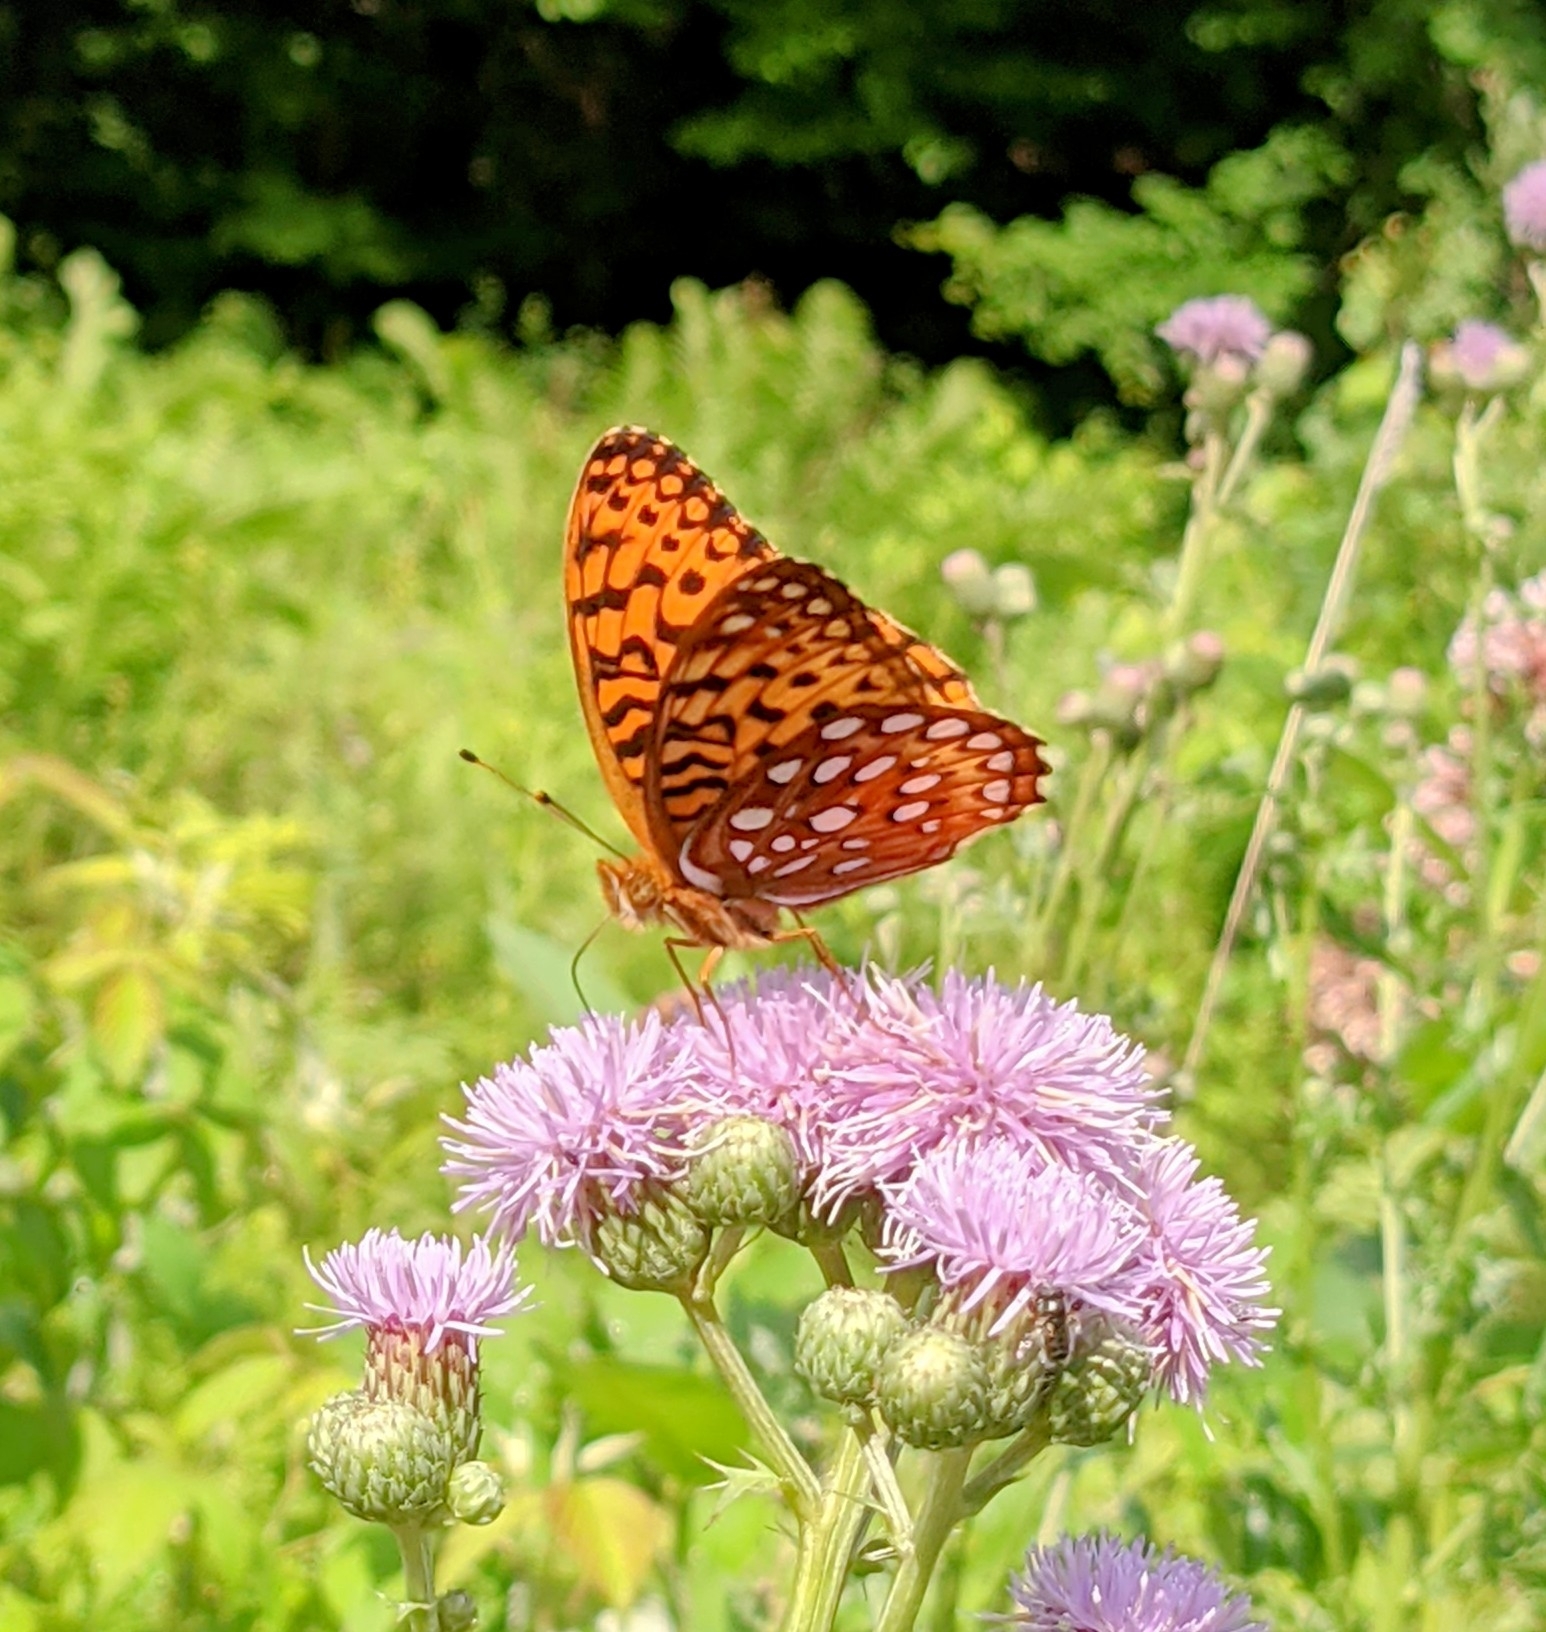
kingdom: Animalia
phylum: Arthropoda
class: Insecta
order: Lepidoptera
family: Nymphalidae
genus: Speyeria
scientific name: Speyeria aphrodite
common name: Aphrodite friitllary
